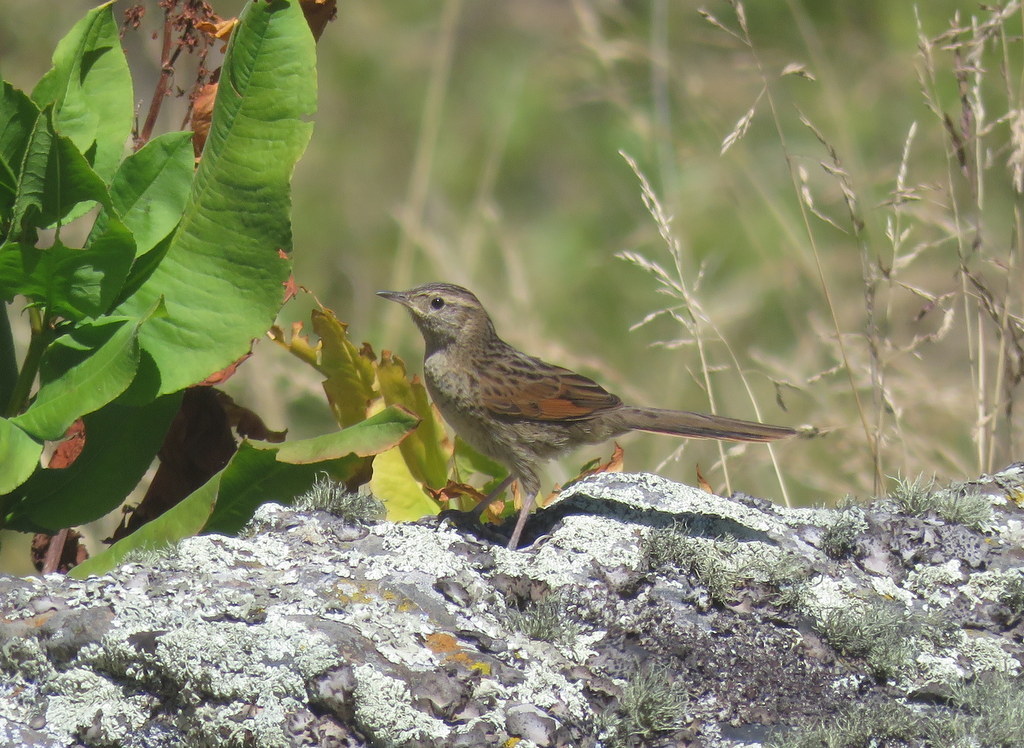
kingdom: Animalia
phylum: Chordata
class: Aves
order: Passeriformes
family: Furnariidae
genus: Asthenes
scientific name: Asthenes wyatti
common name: Streak-backed canastero
